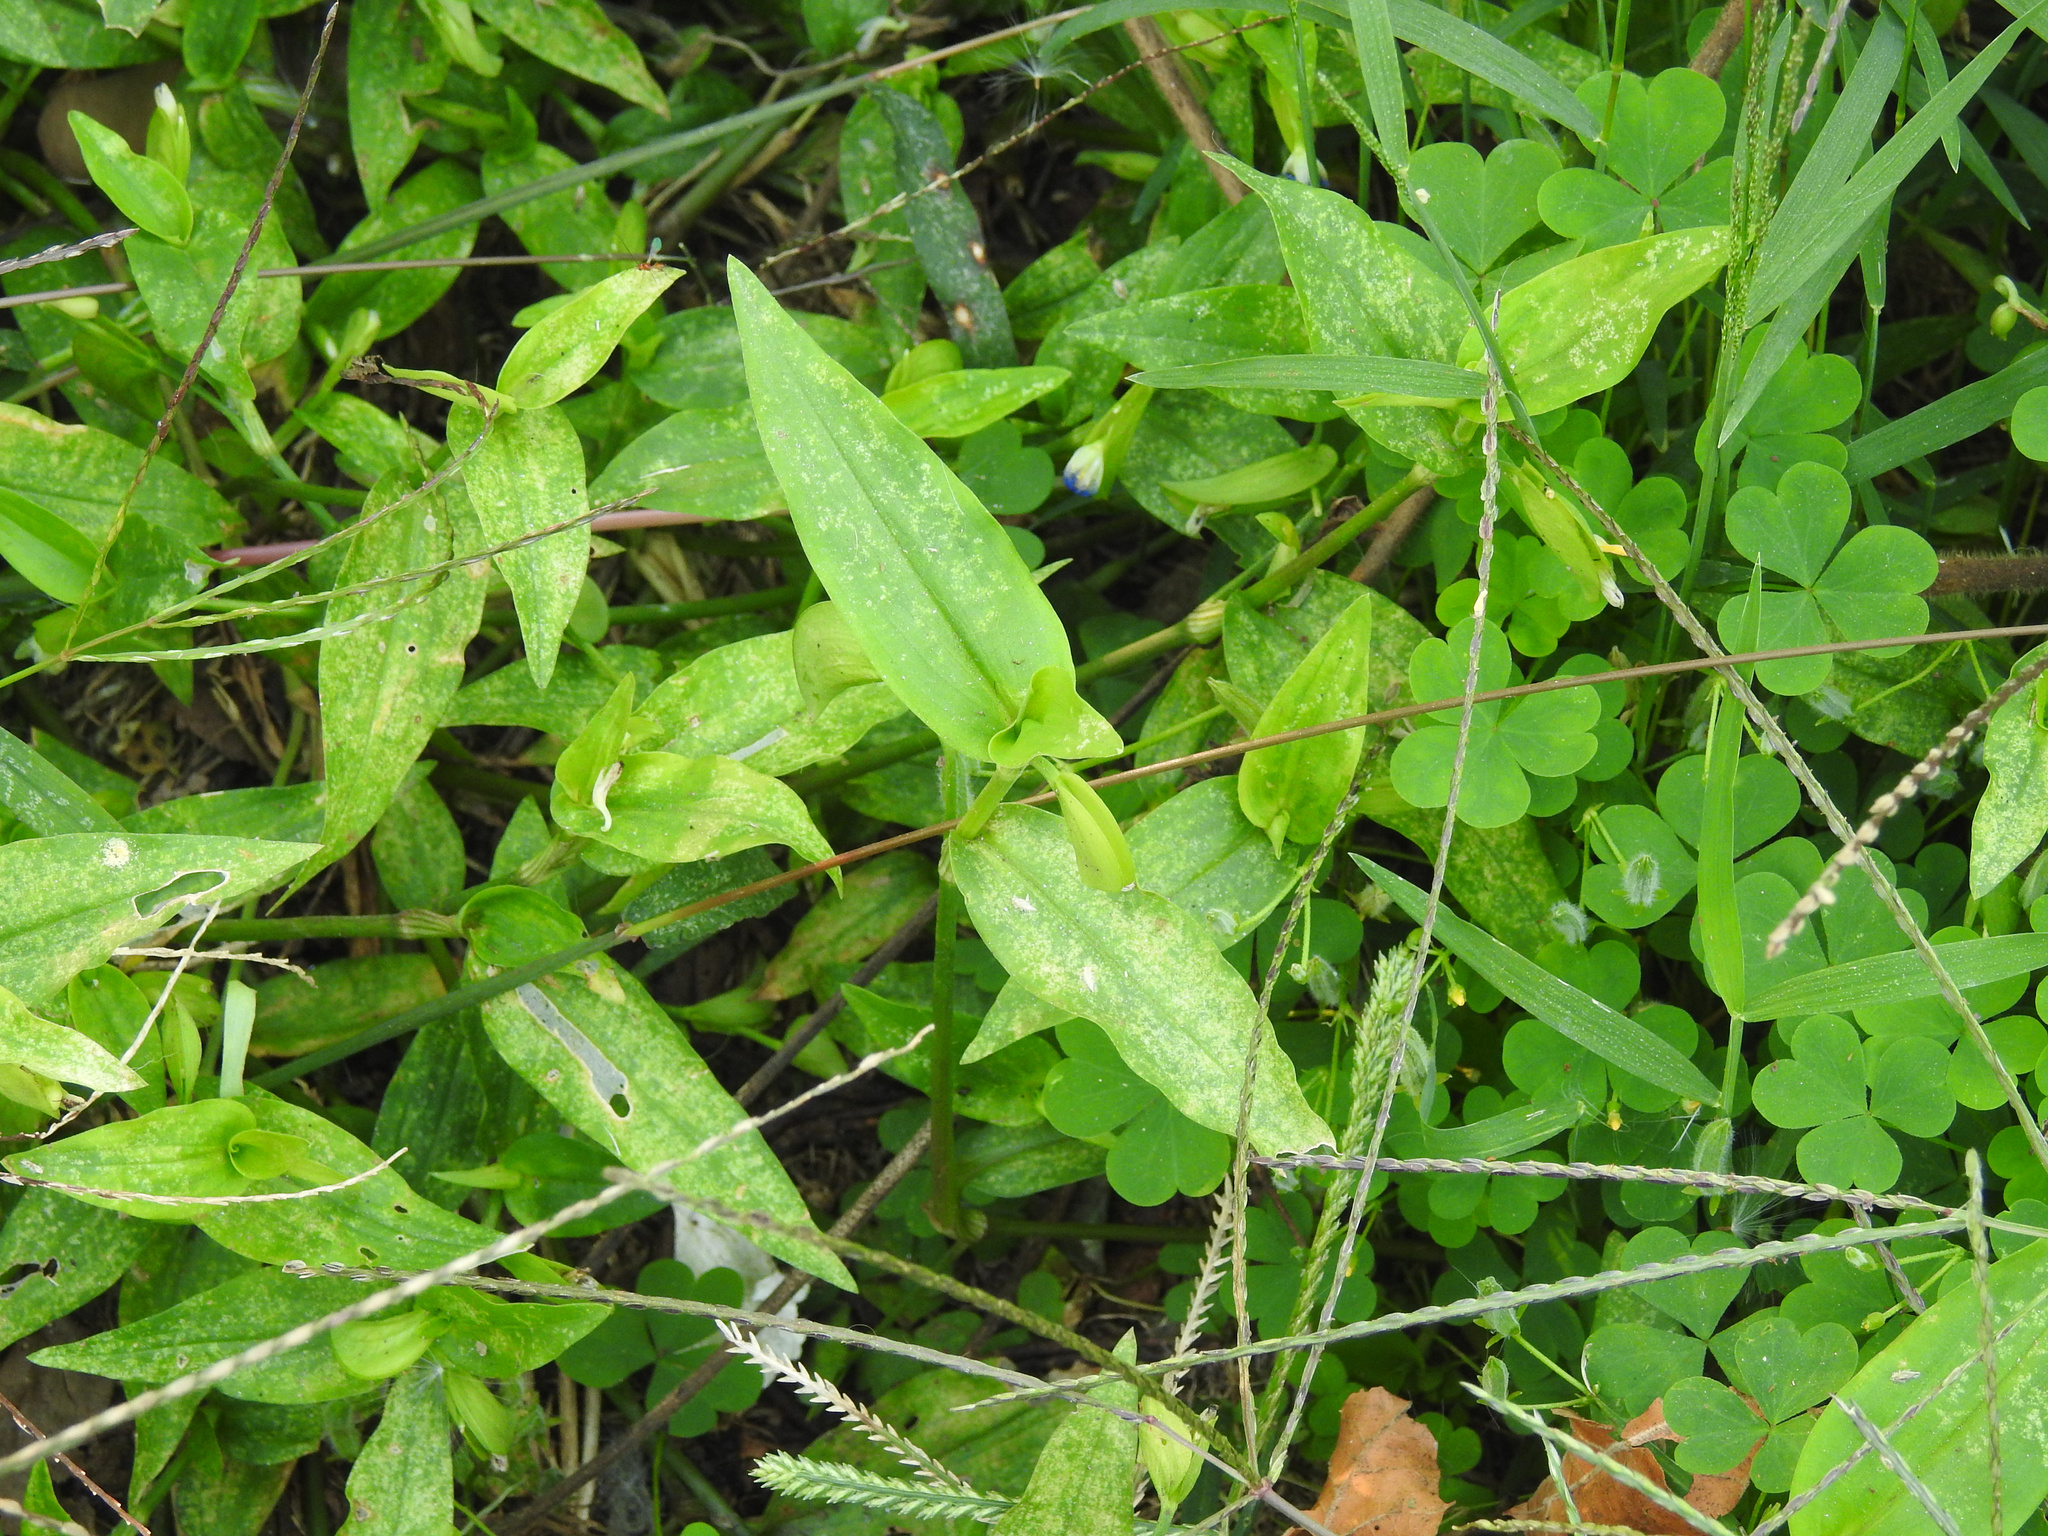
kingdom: Plantae
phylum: Tracheophyta
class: Liliopsida
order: Commelinales
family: Commelinaceae
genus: Commelina
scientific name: Commelina communis
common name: Asiatic dayflower
